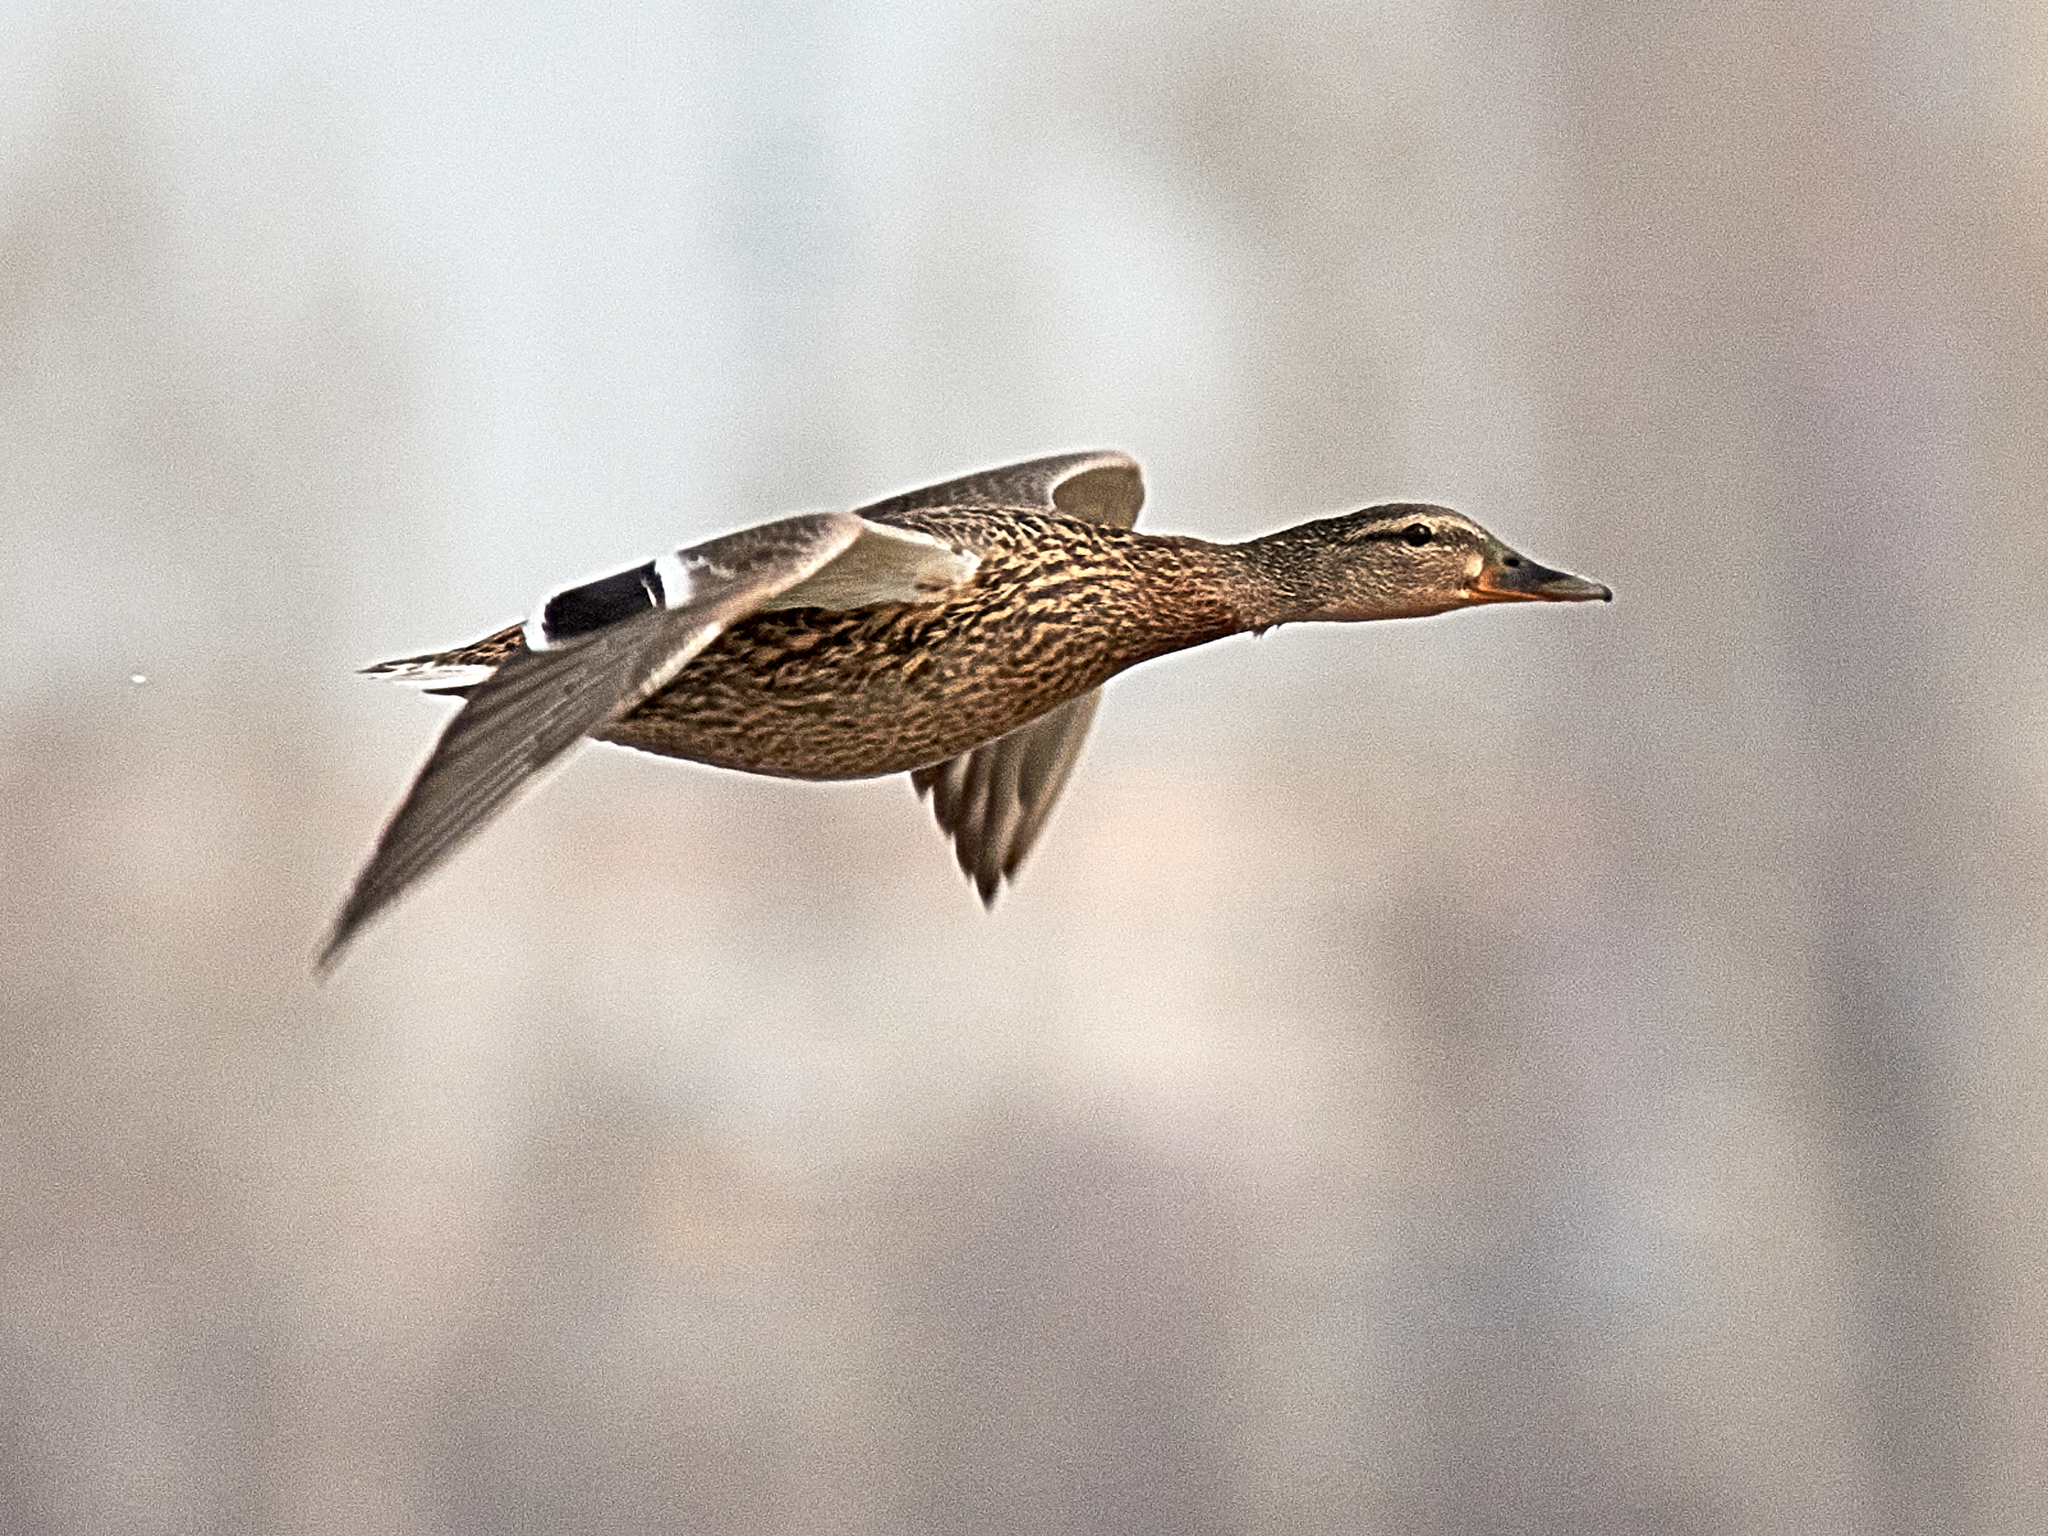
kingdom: Animalia
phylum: Chordata
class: Aves
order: Anseriformes
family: Anatidae
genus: Anas
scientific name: Anas platyrhynchos
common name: Mallard
